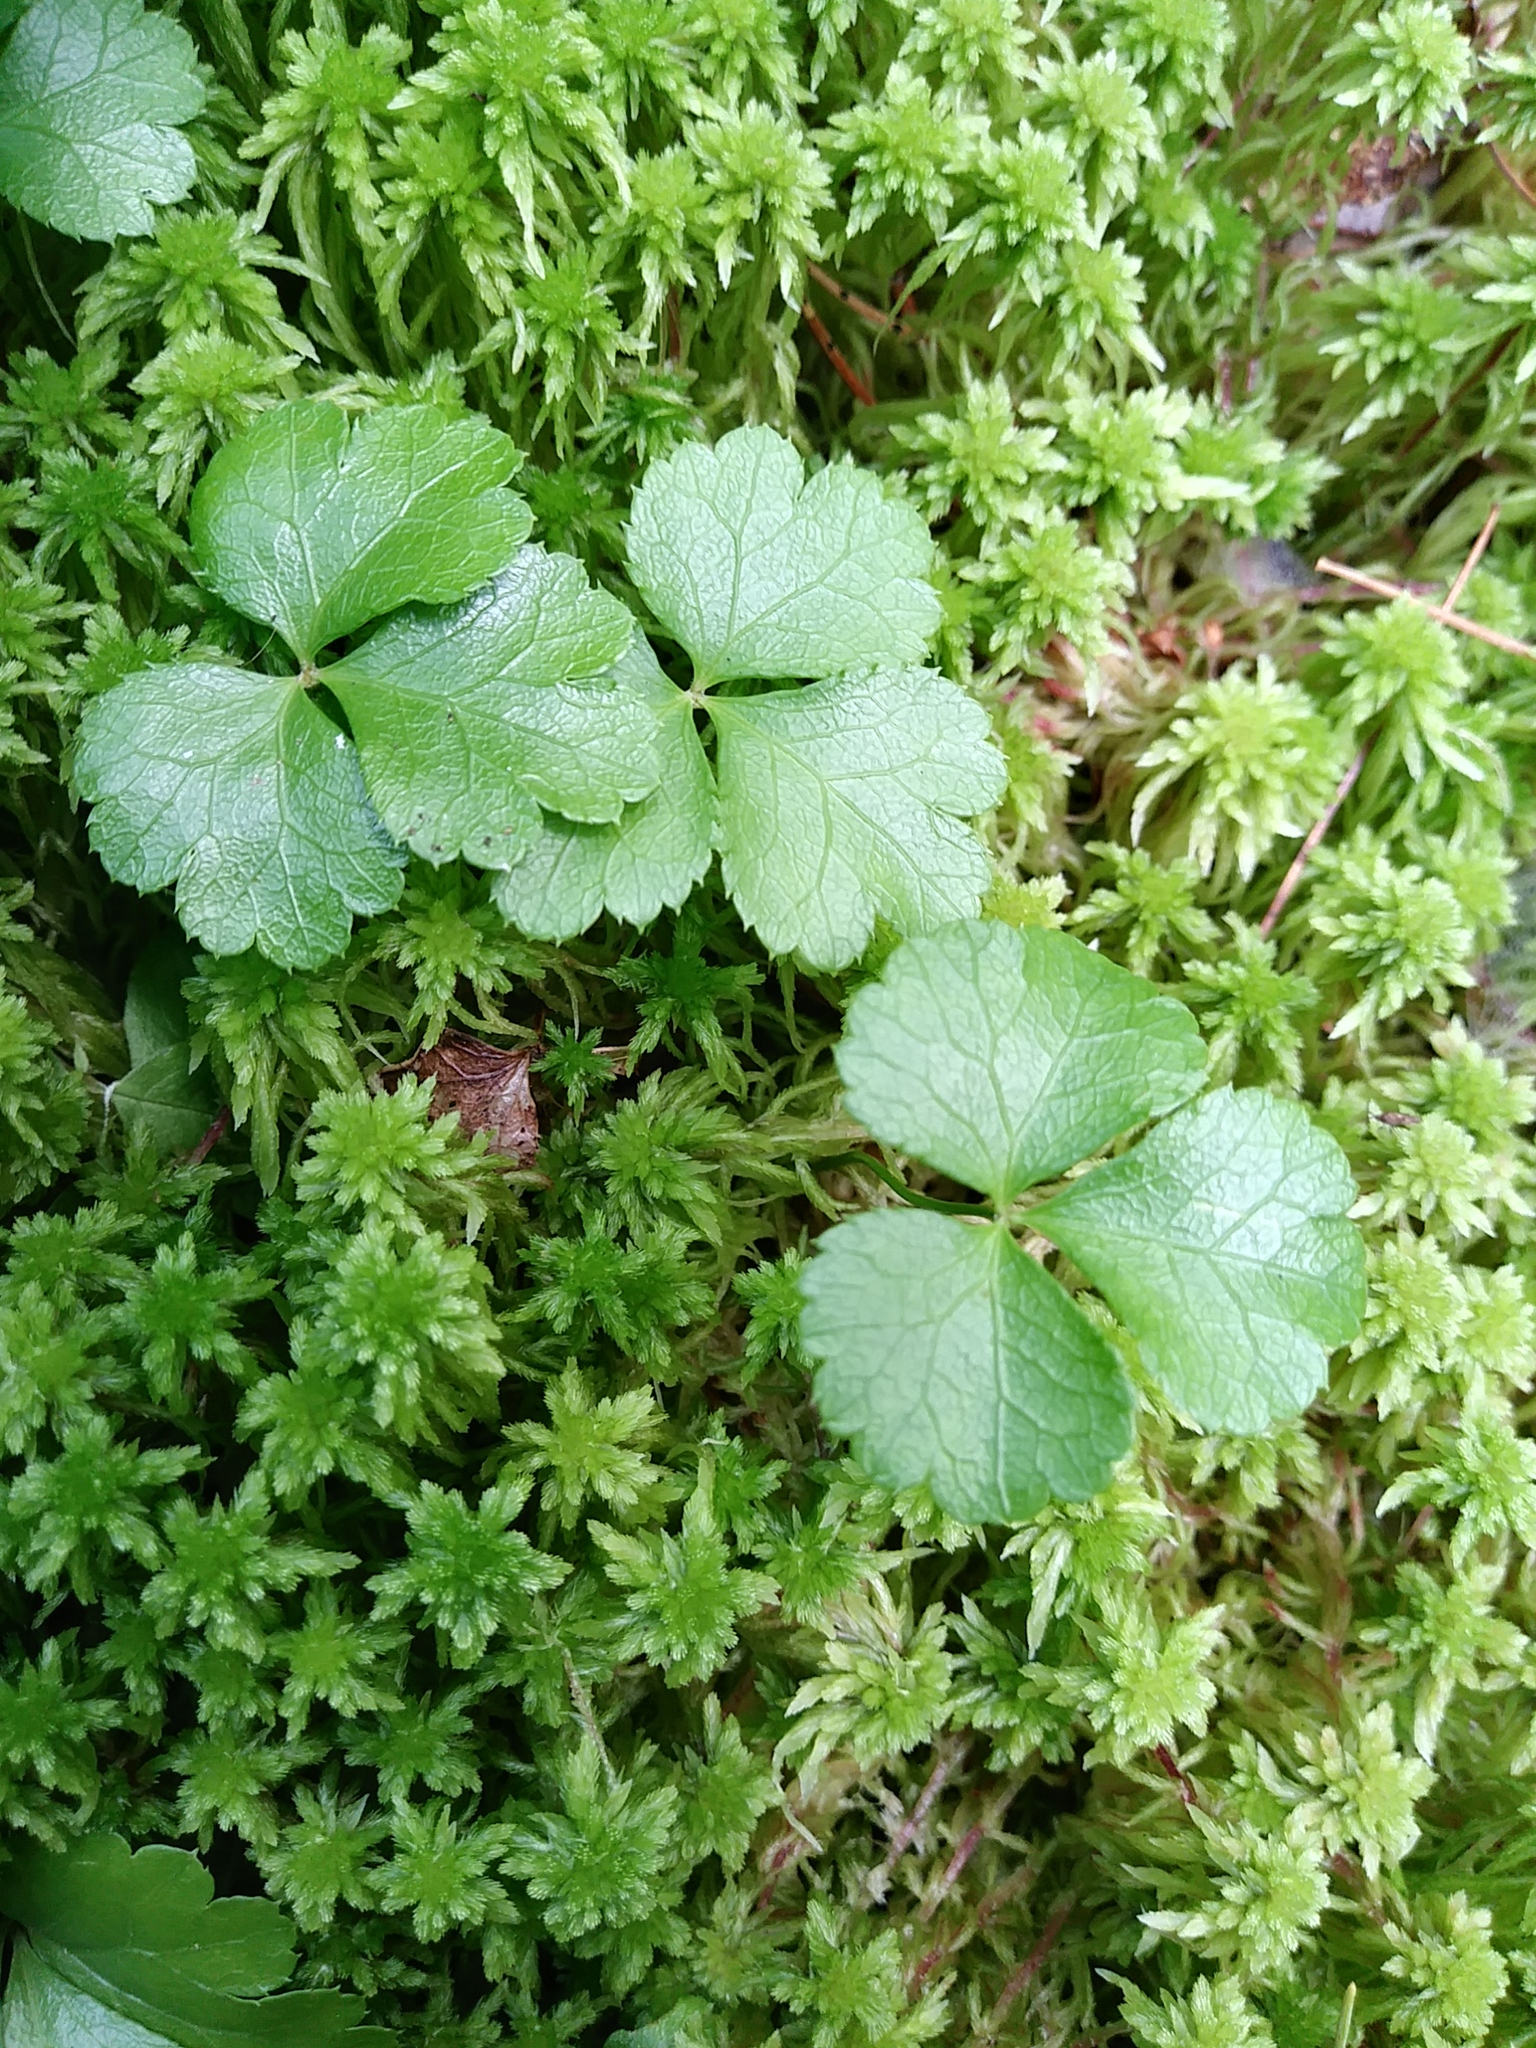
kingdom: Plantae
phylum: Tracheophyta
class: Magnoliopsida
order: Ranunculales
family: Ranunculaceae
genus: Coptis
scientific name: Coptis trifolia
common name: Canker-root
